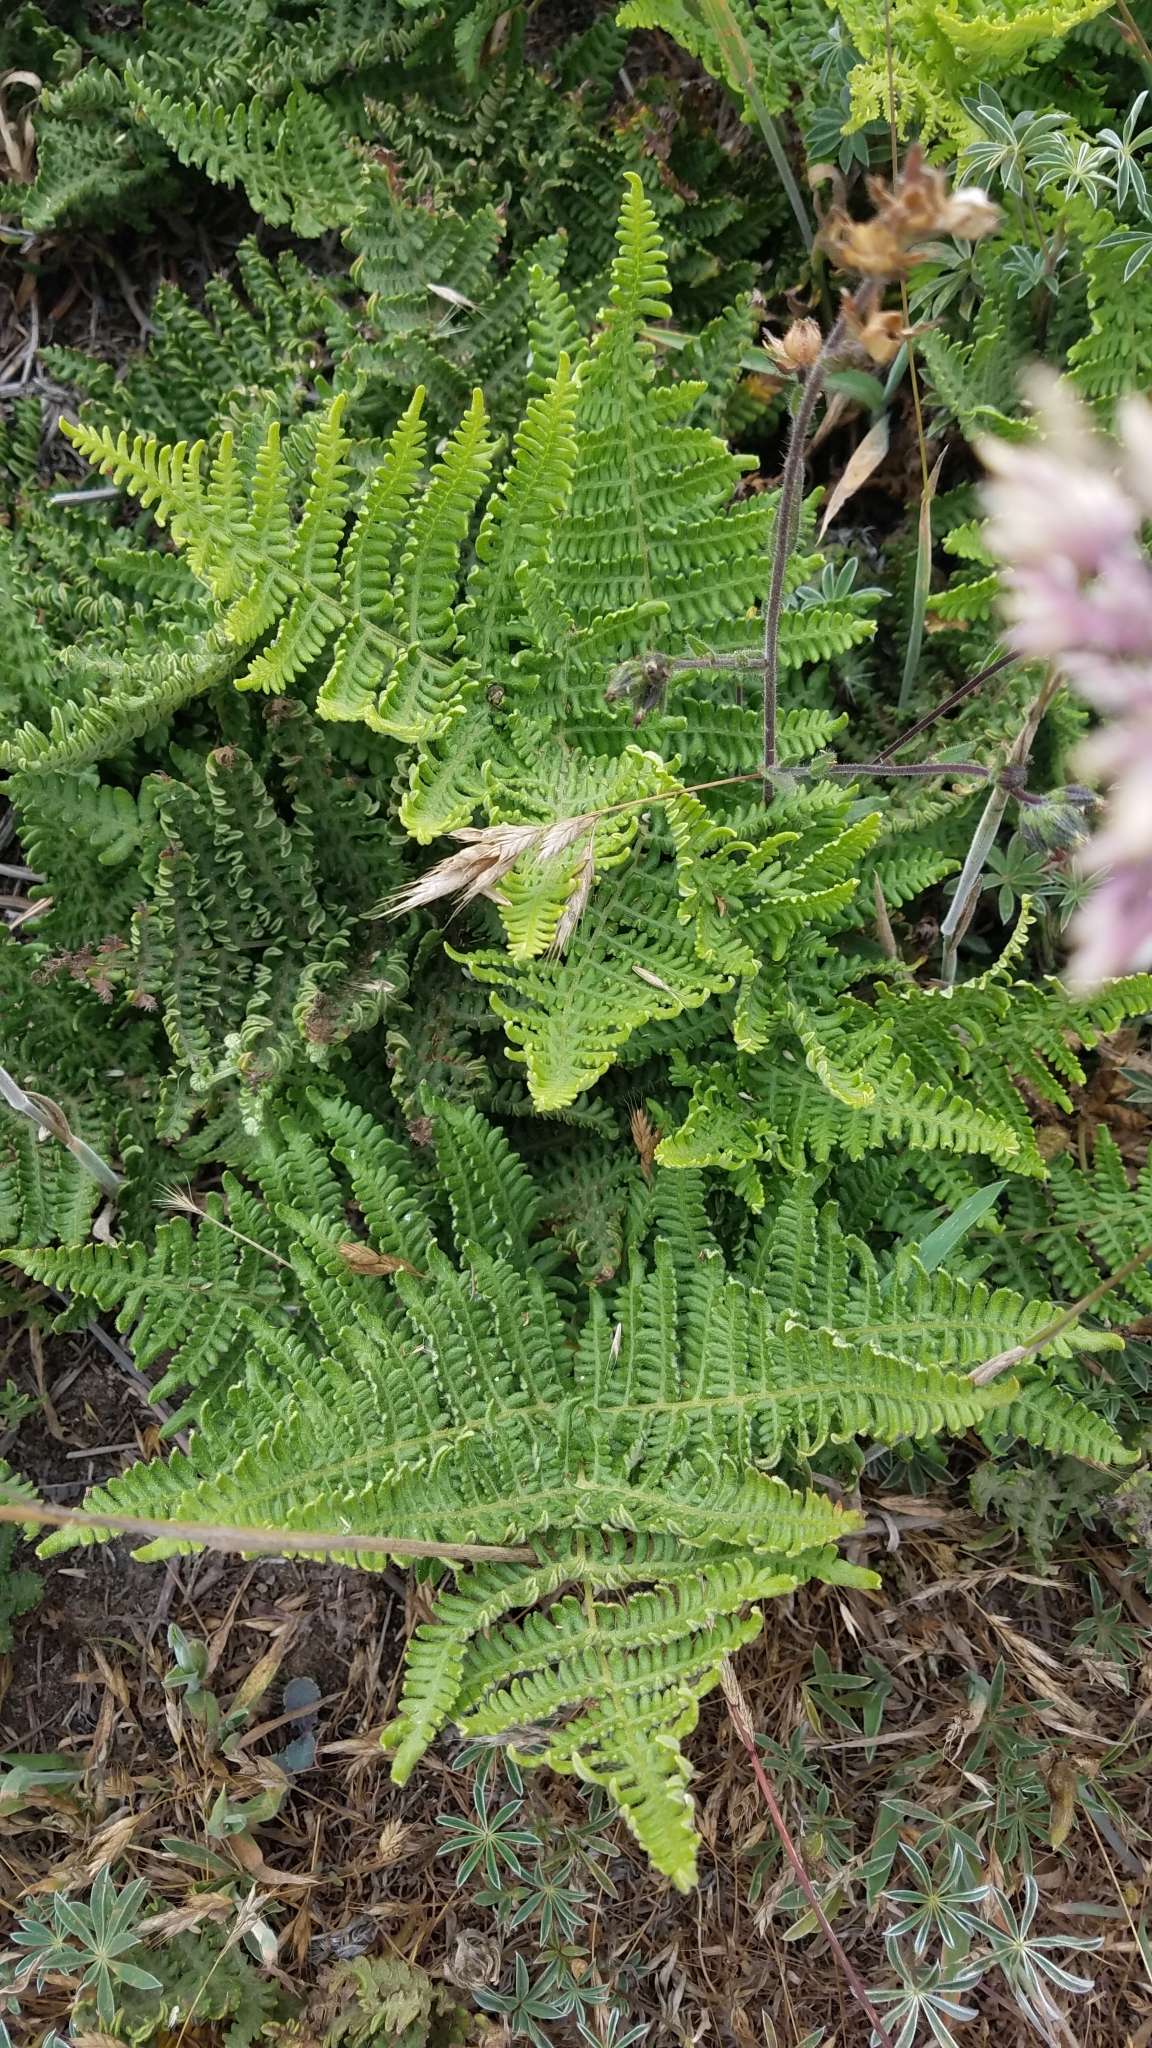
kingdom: Plantae
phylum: Tracheophyta
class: Polypodiopsida
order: Polypodiales
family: Dennstaedtiaceae
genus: Pteridium
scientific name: Pteridium aquilinum
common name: Bracken
